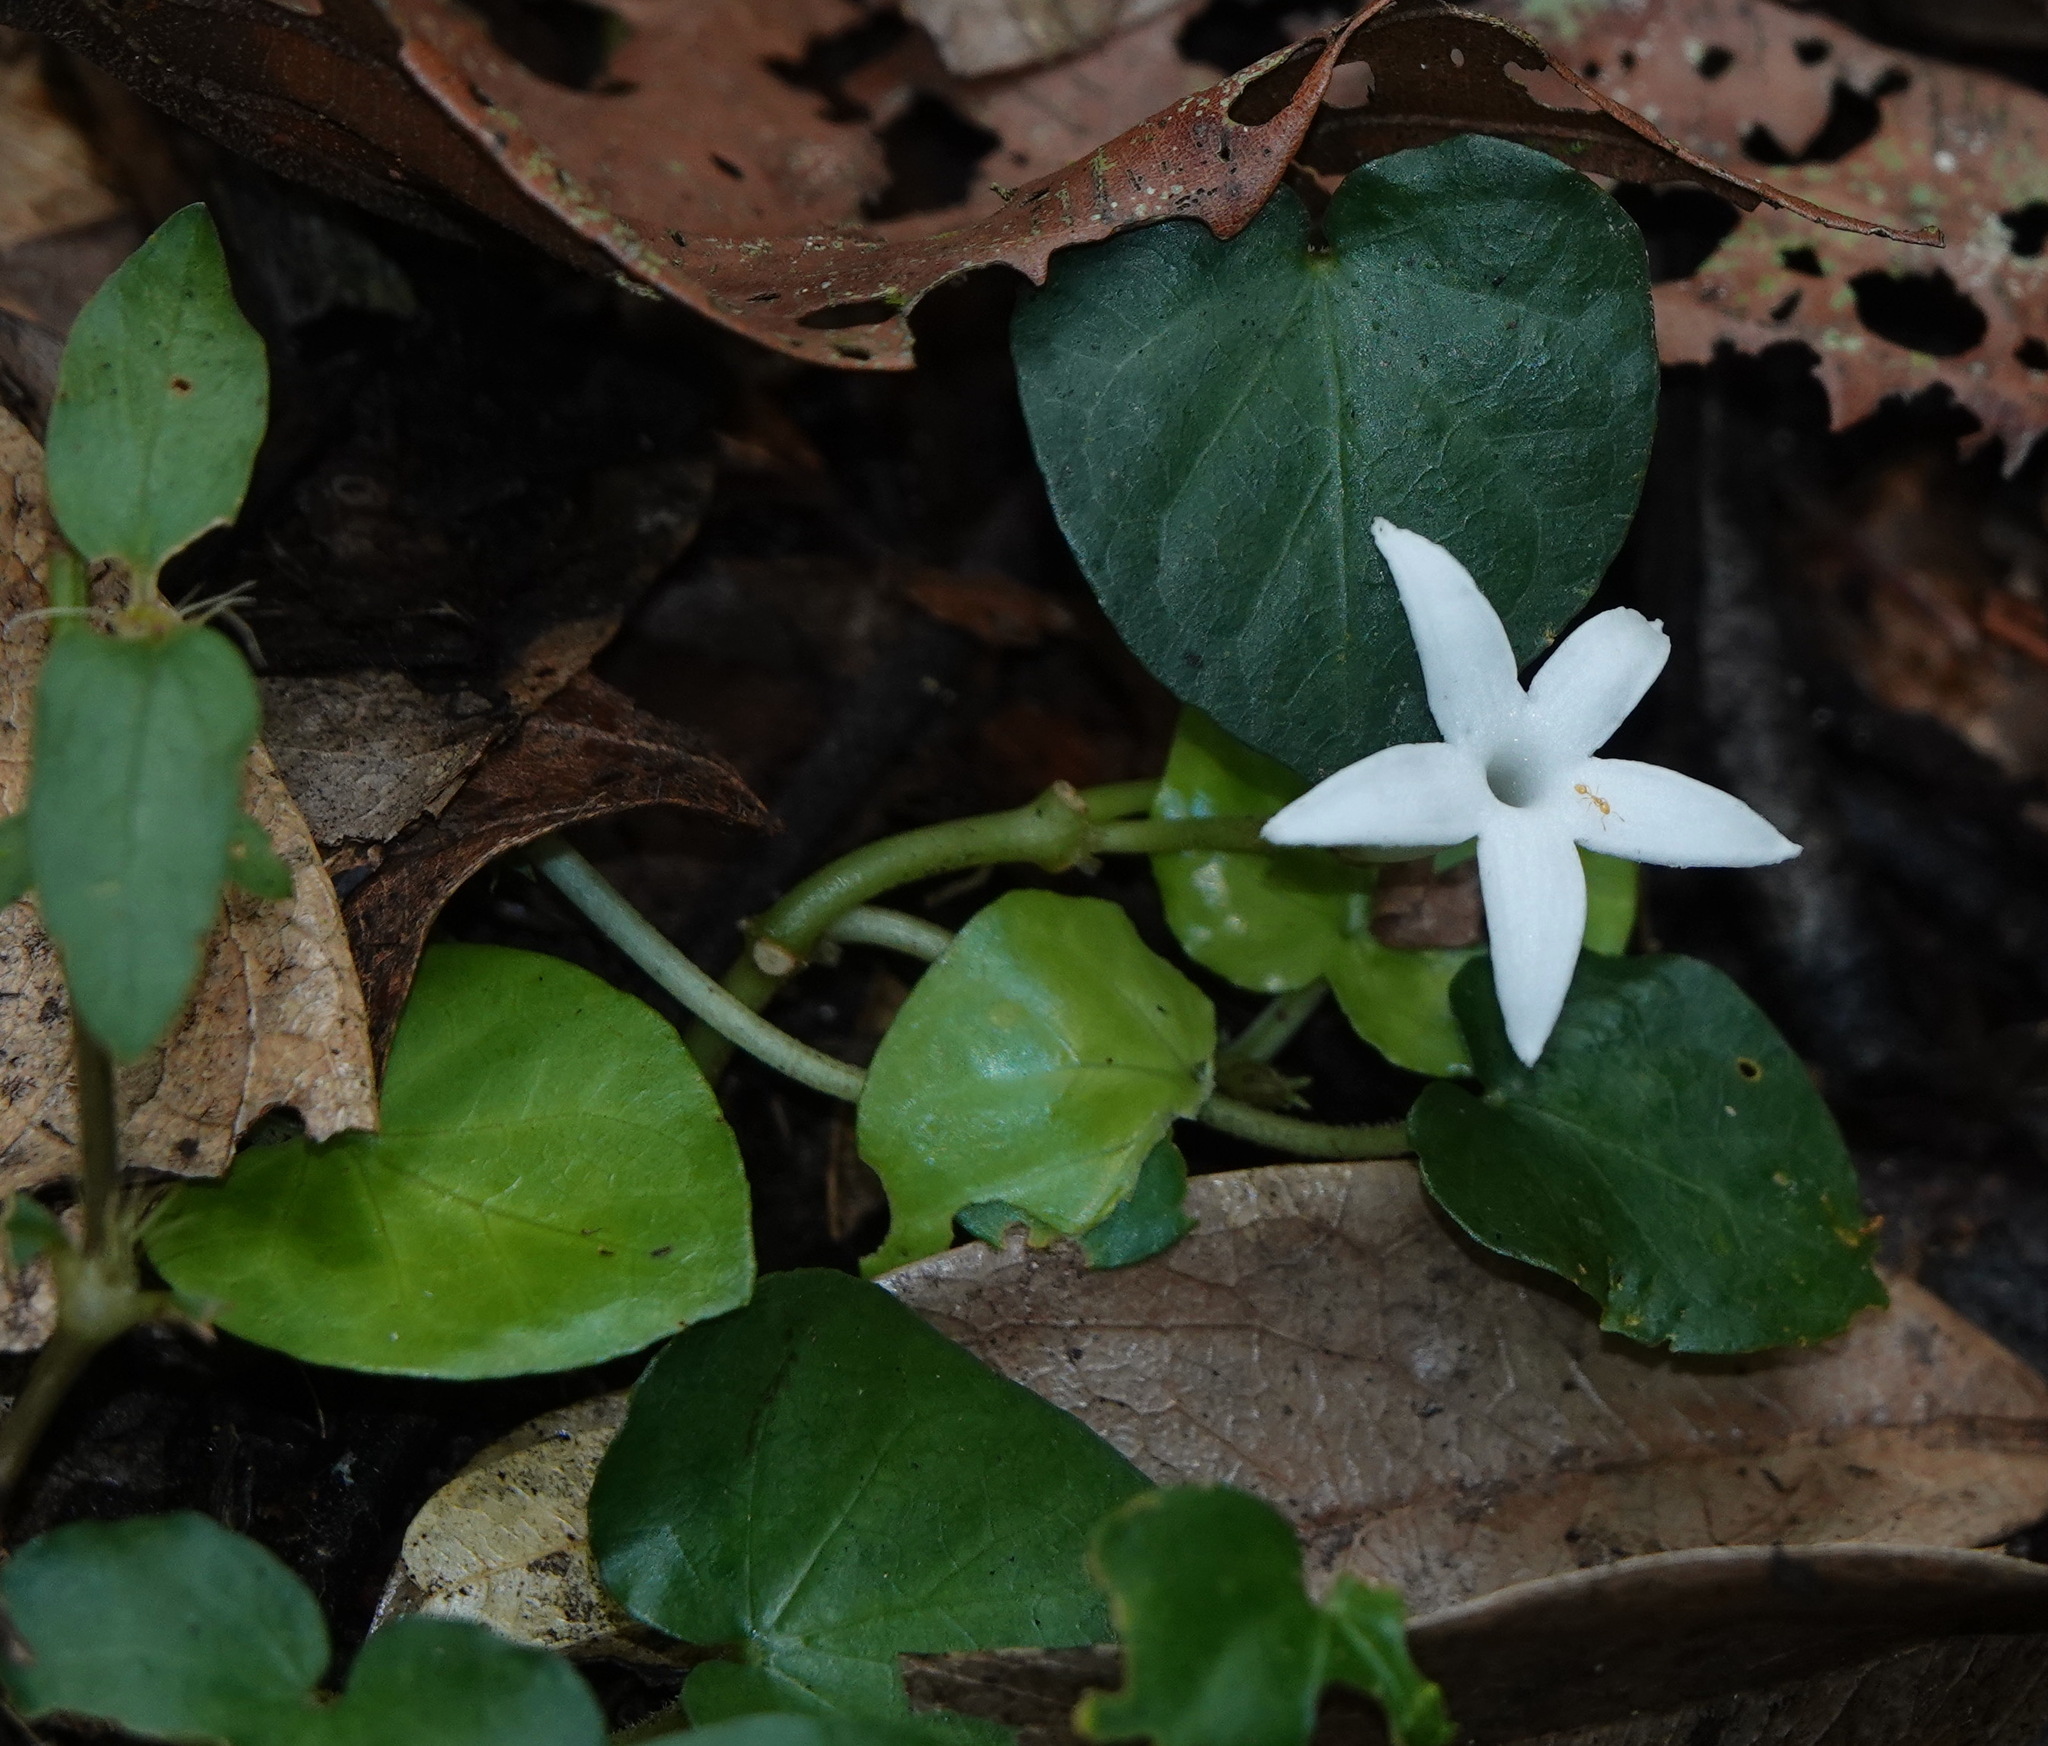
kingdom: Plantae
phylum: Tracheophyta
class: Magnoliopsida
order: Gentianales
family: Rubiaceae
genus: Geophila
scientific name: Geophila herbacea
